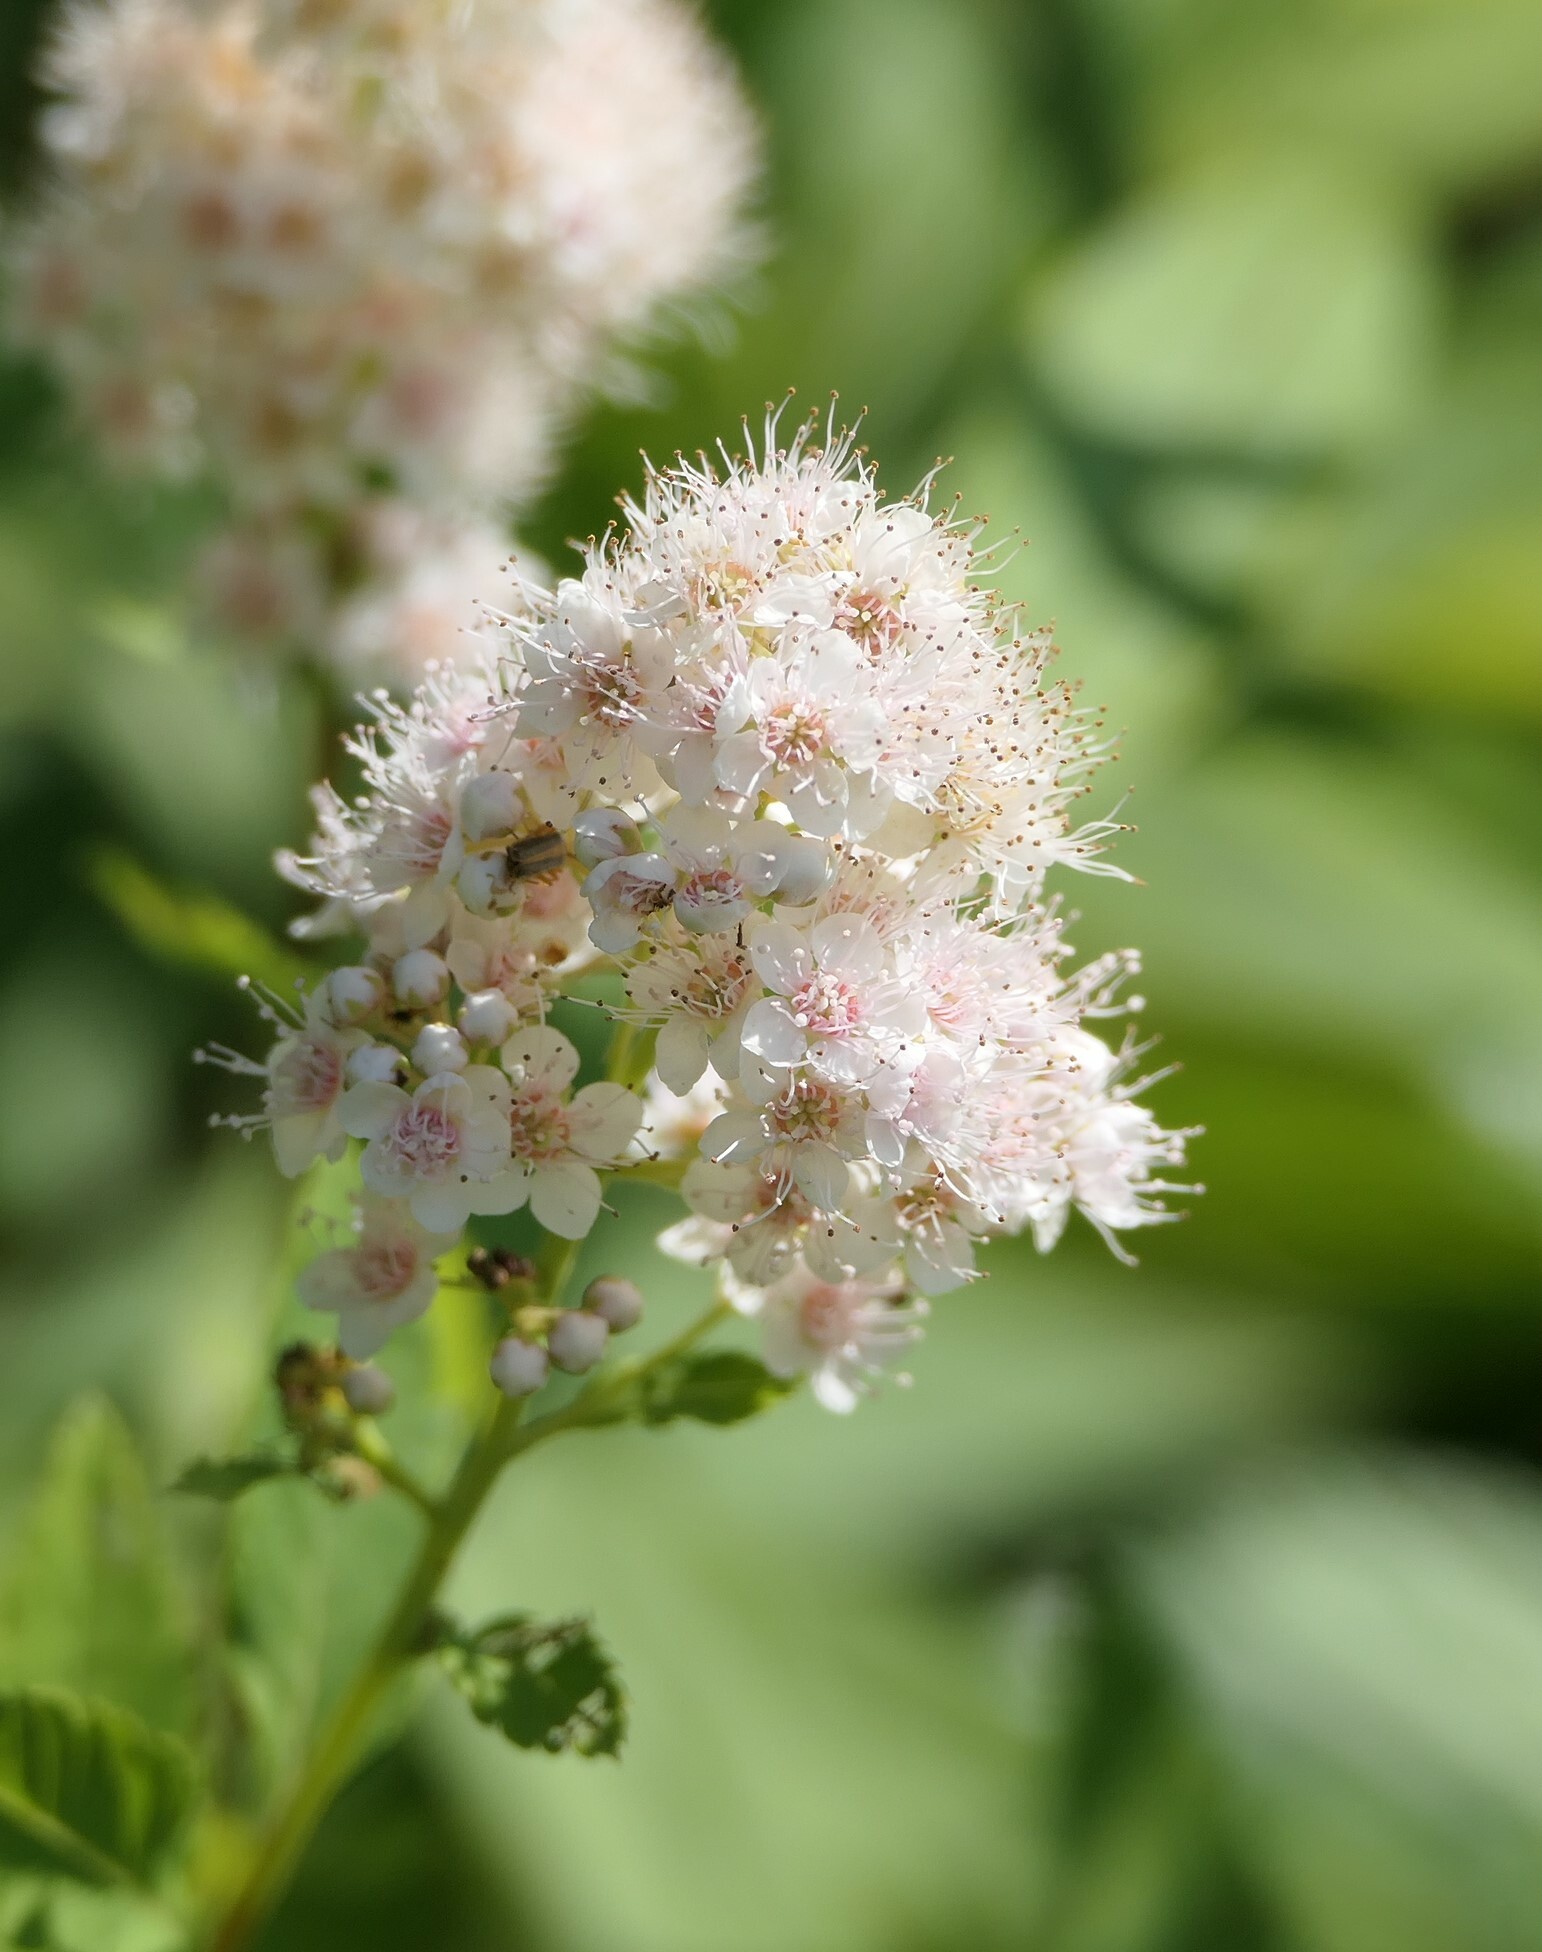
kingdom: Plantae
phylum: Tracheophyta
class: Magnoliopsida
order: Rosales
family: Rosaceae
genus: Spiraea
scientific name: Spiraea alba
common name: Pale bridewort
